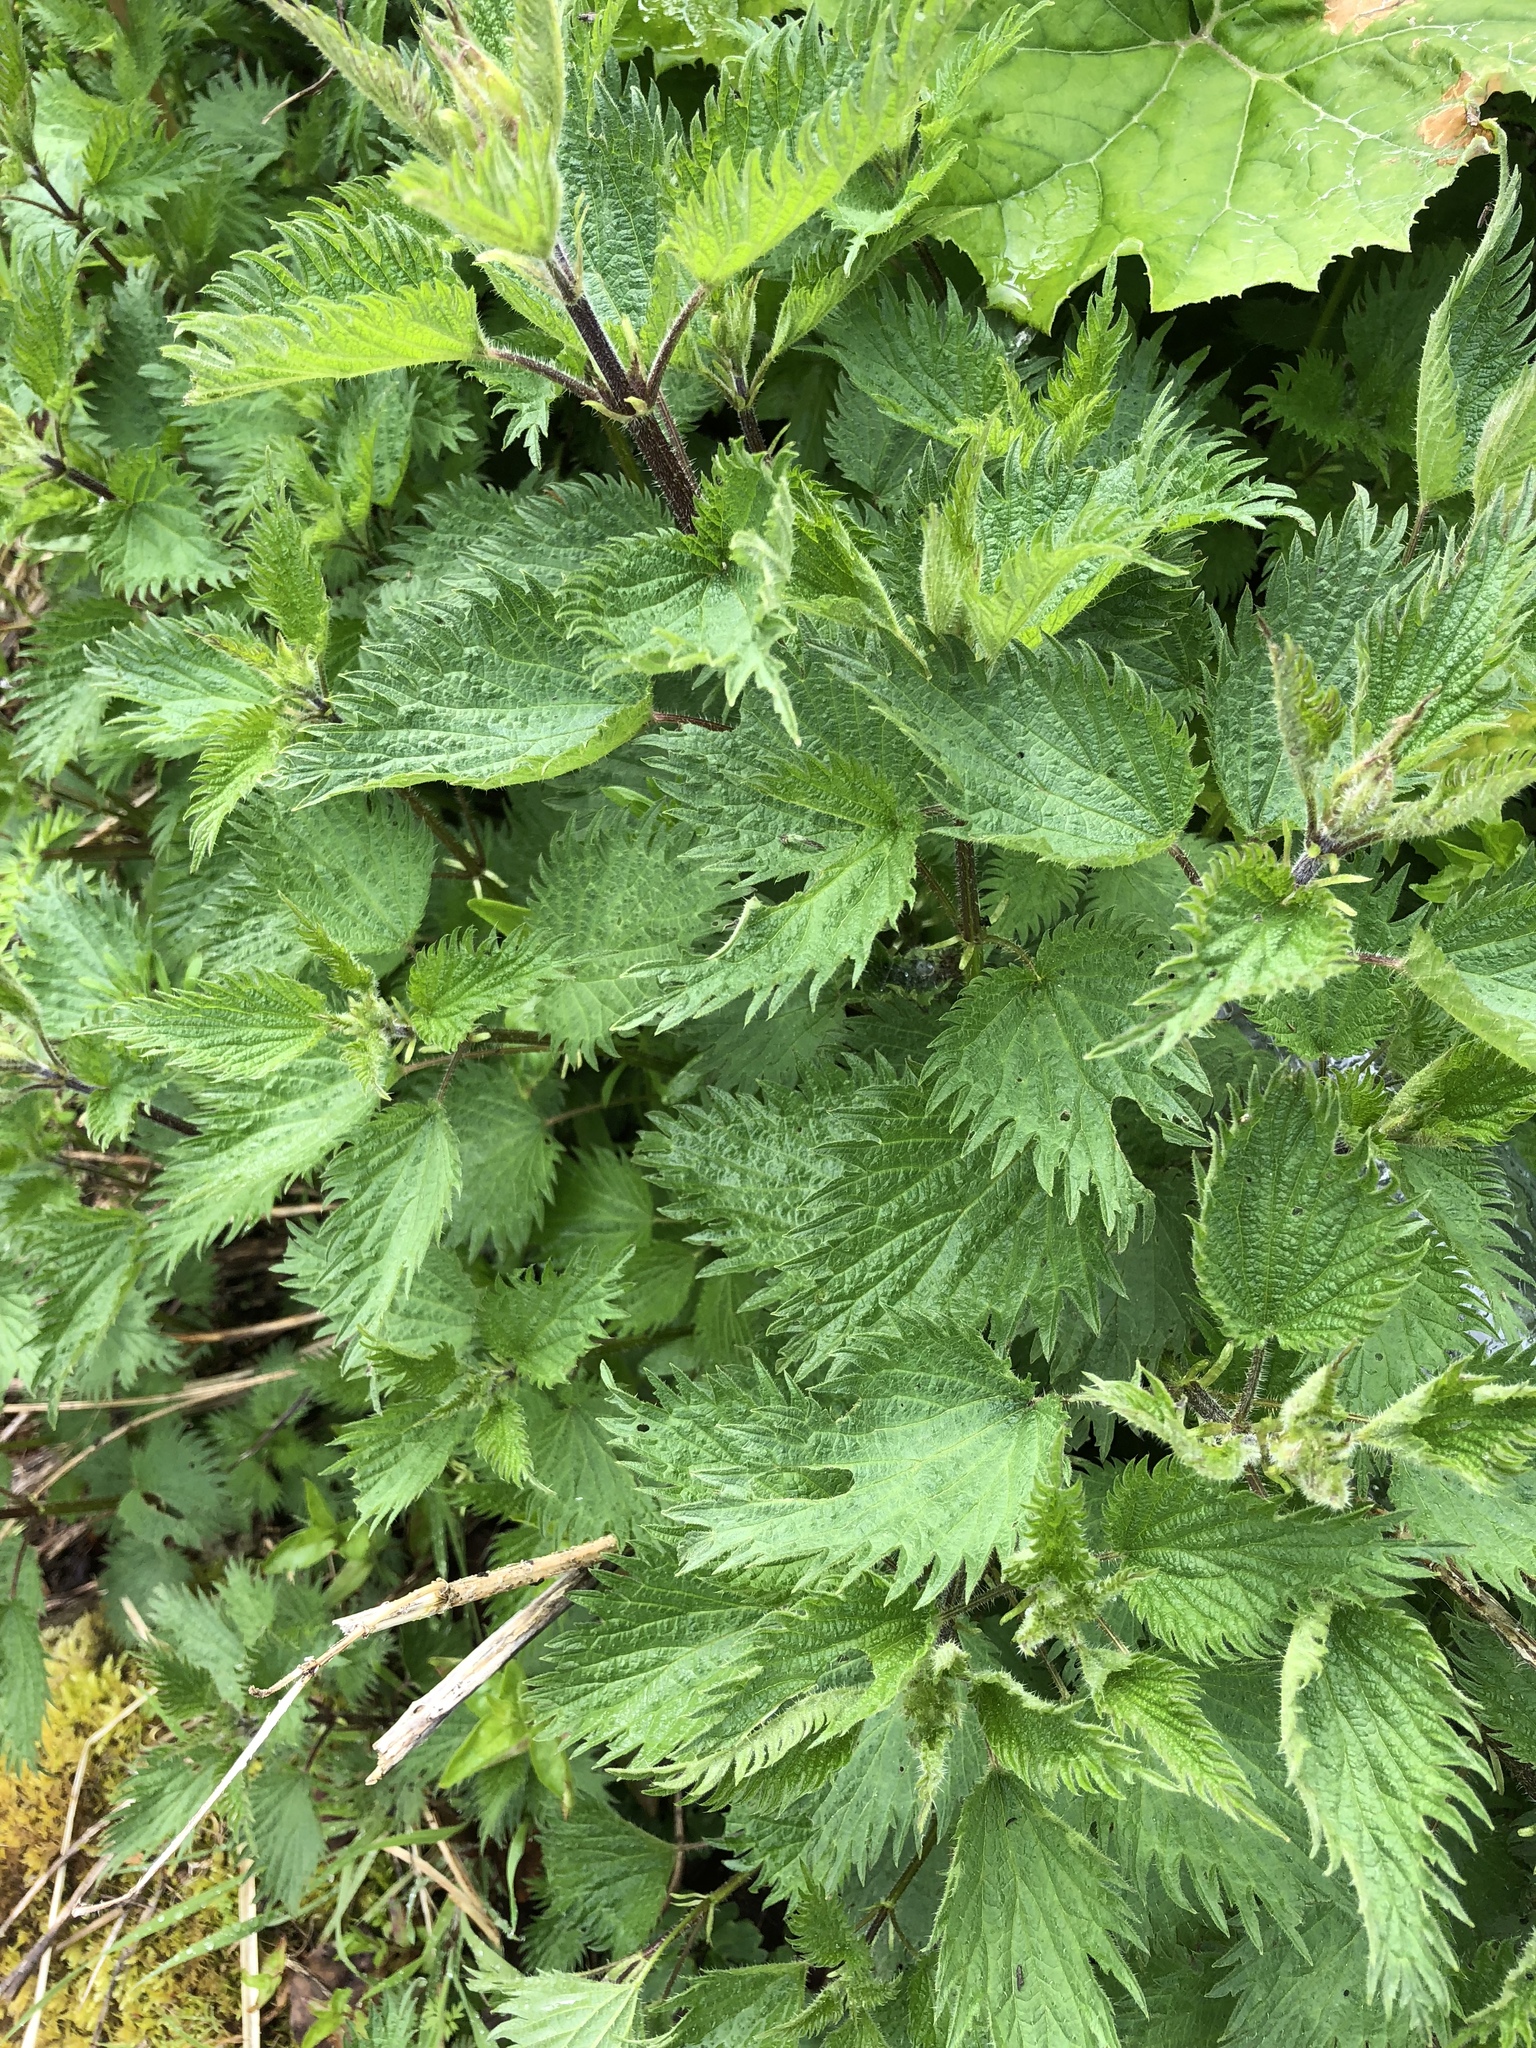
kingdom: Plantae
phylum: Tracheophyta
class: Magnoliopsida
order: Rosales
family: Urticaceae
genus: Urtica
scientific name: Urtica dioica
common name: Common nettle
